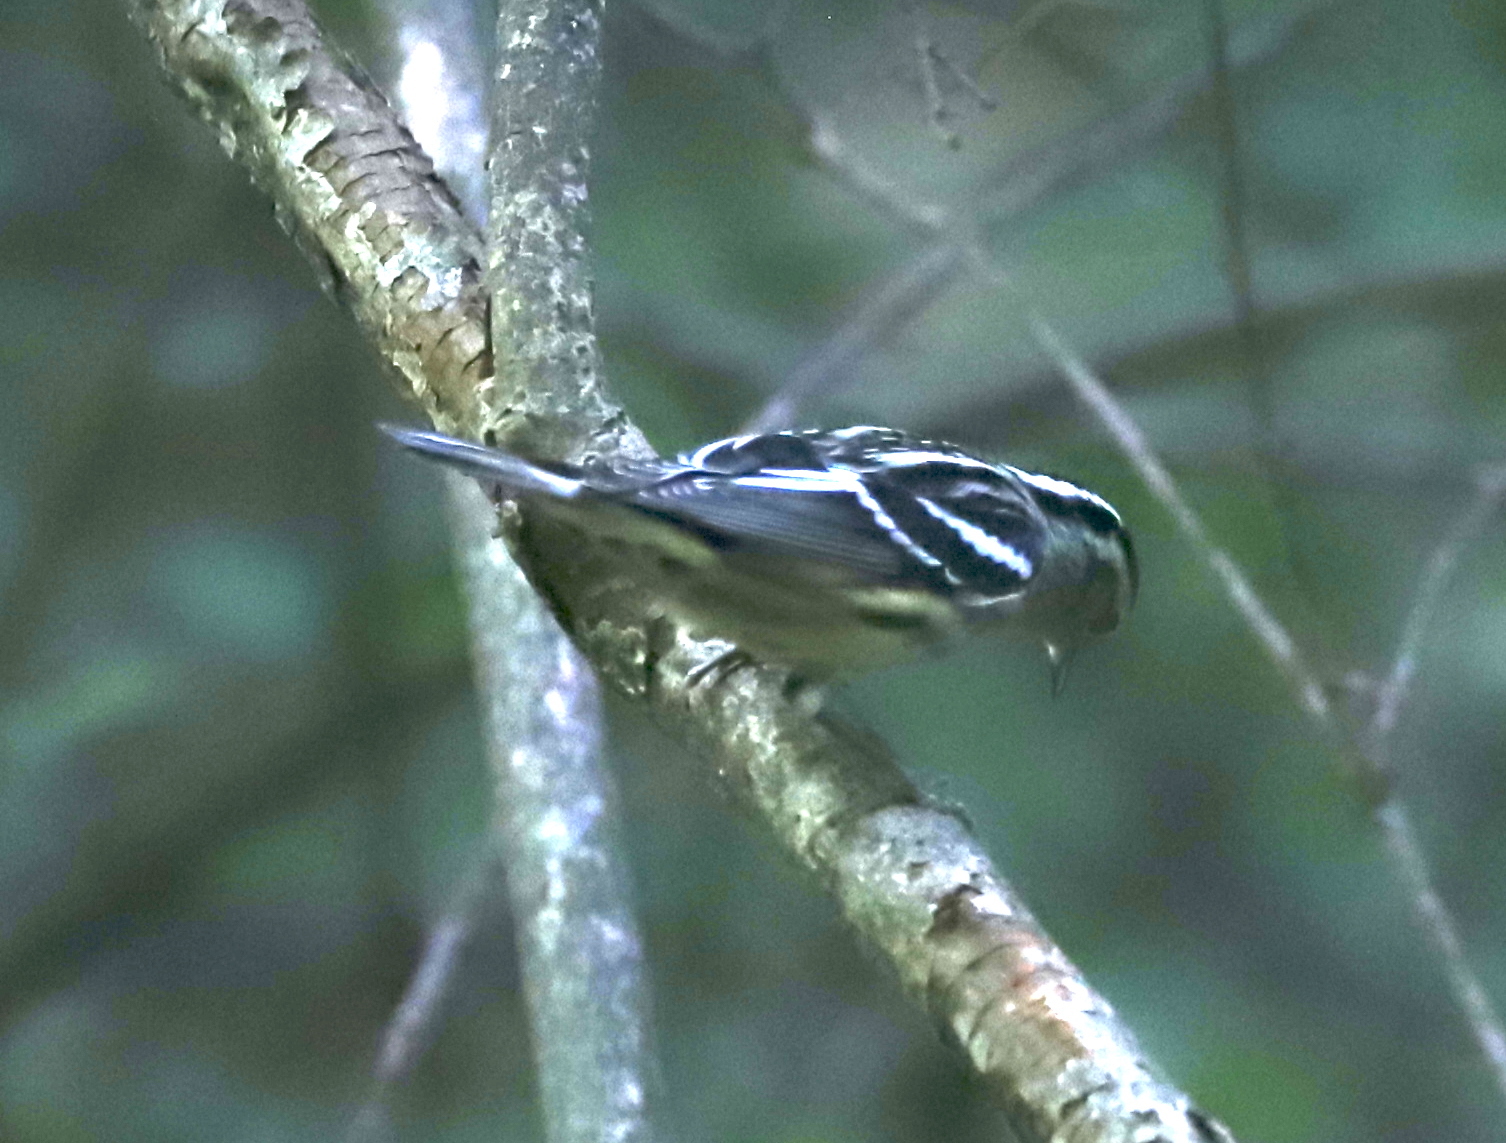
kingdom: Animalia
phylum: Chordata
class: Aves
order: Passeriformes
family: Parulidae
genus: Mniotilta
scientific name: Mniotilta varia
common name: Black-and-white warbler
